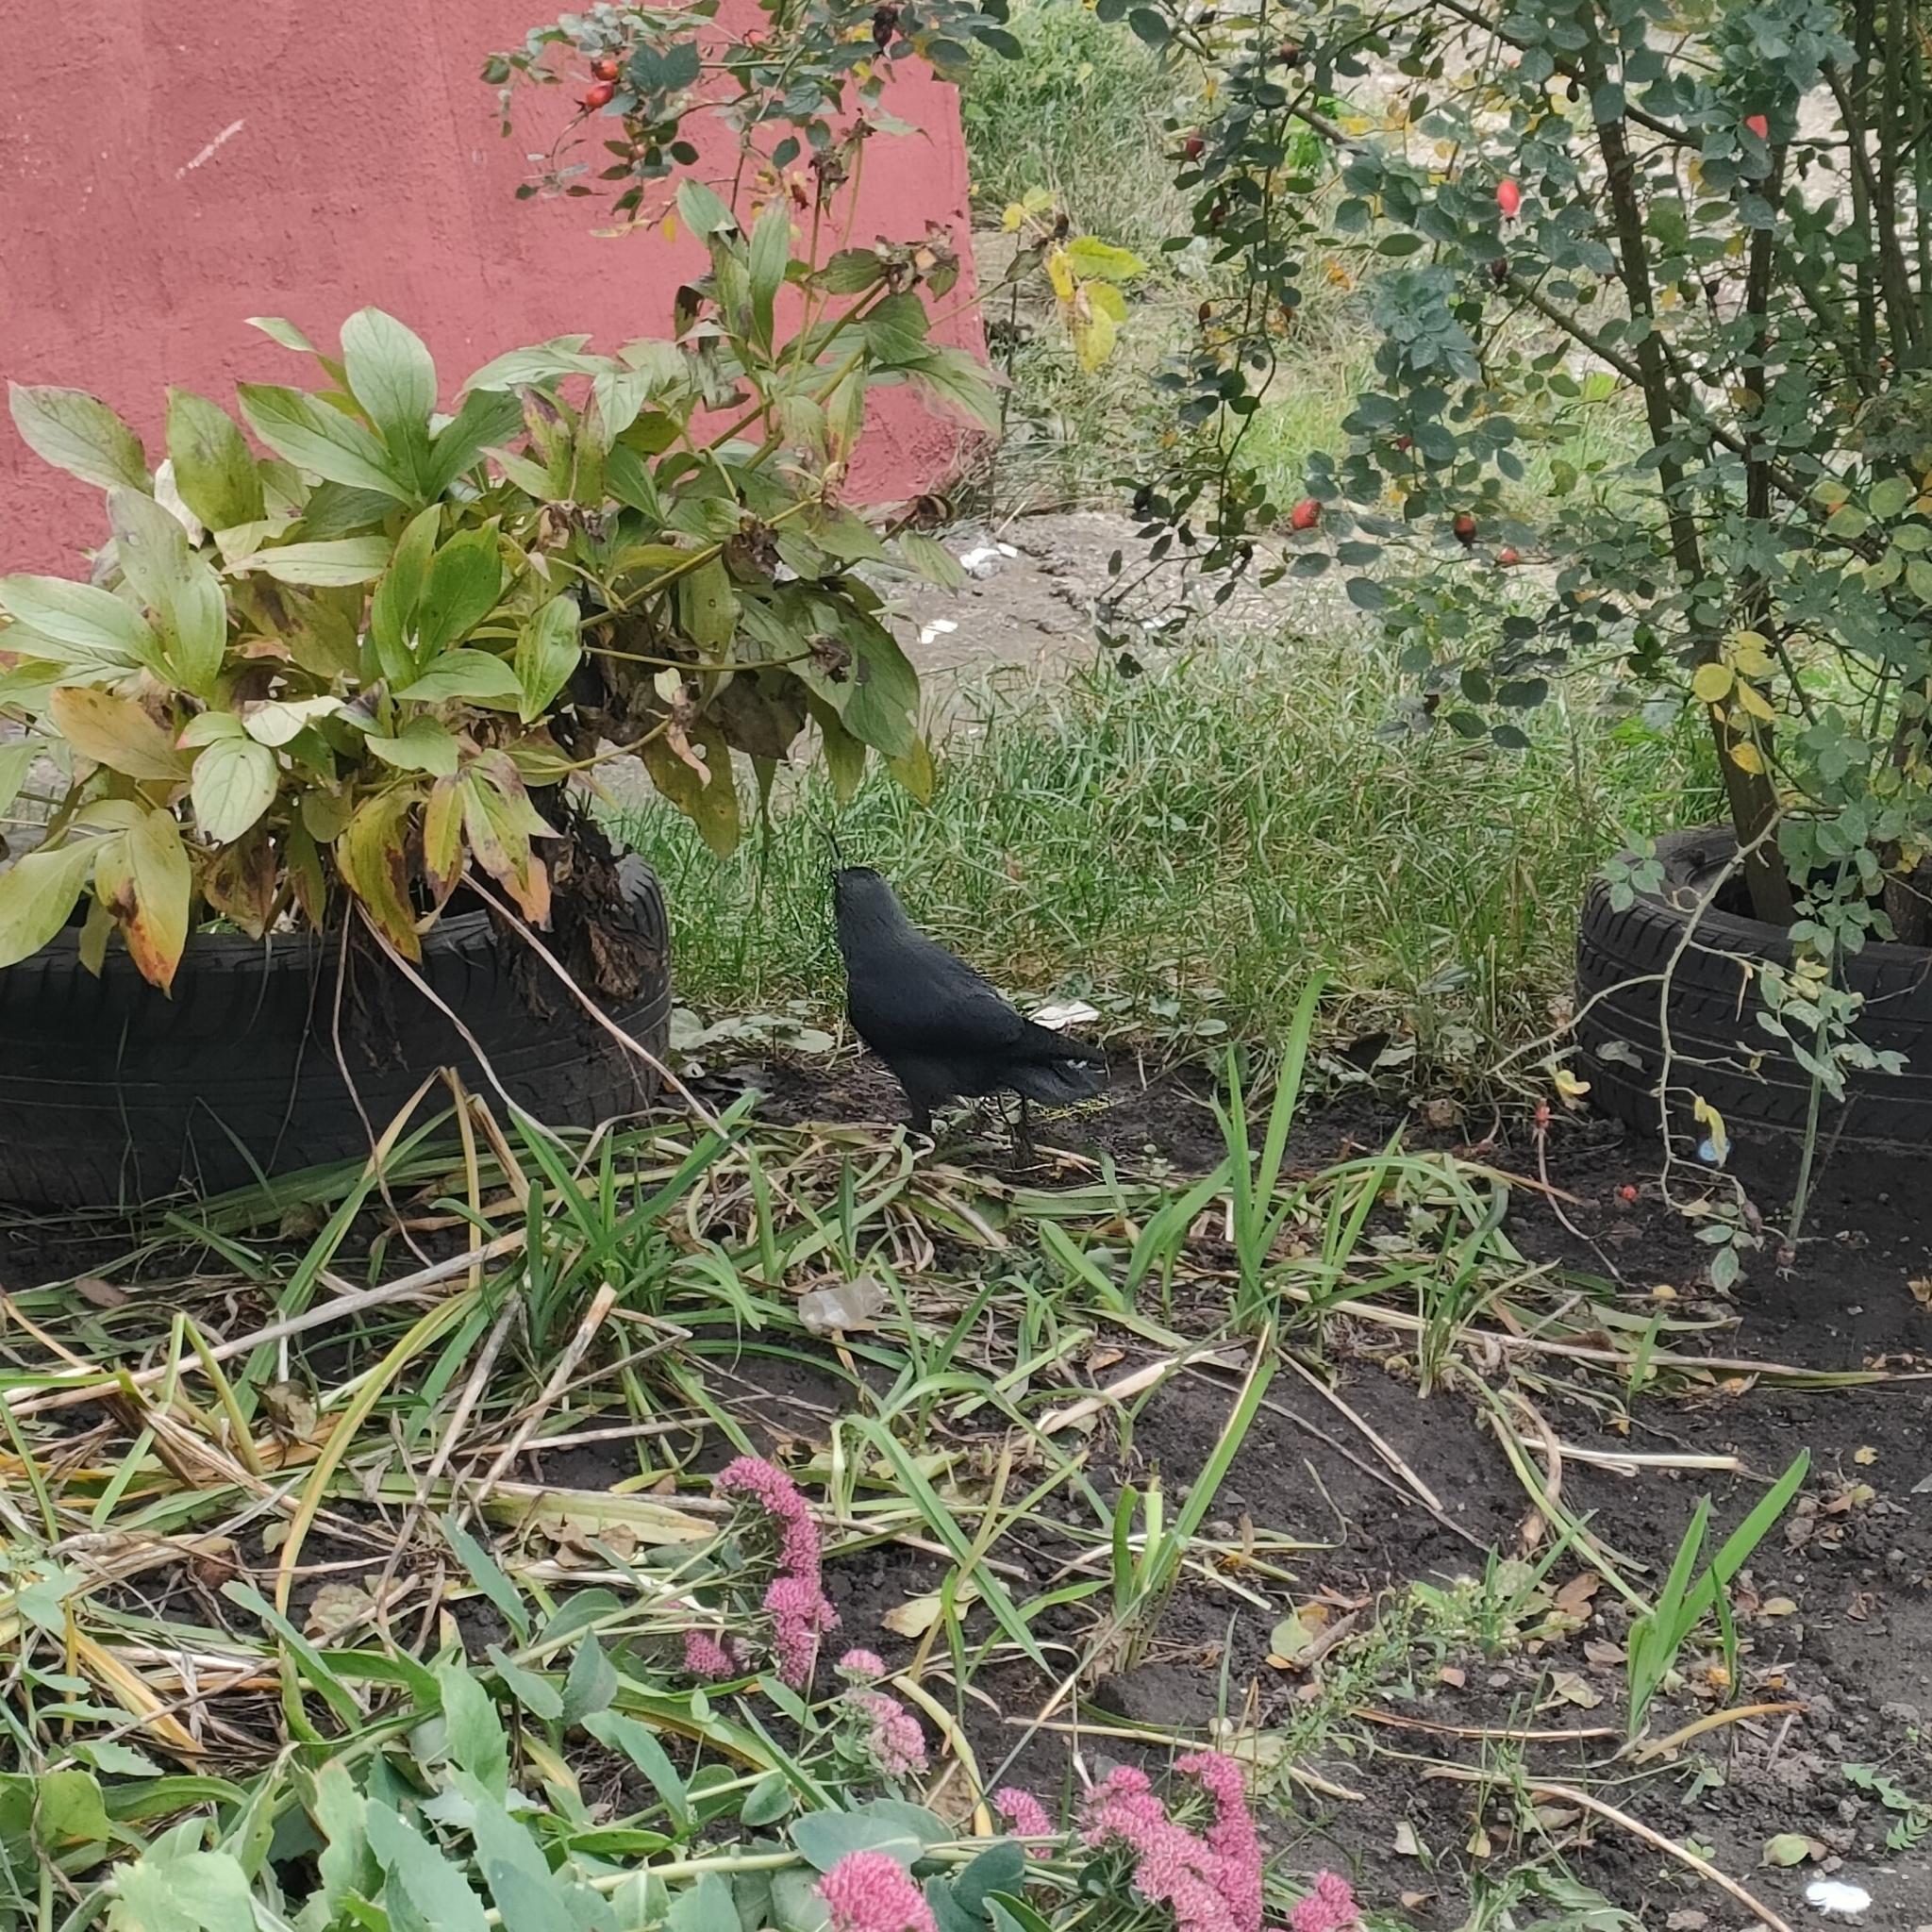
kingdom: Animalia
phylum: Chordata
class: Aves
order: Passeriformes
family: Corvidae
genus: Coloeus
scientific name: Coloeus monedula
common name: Western jackdaw
